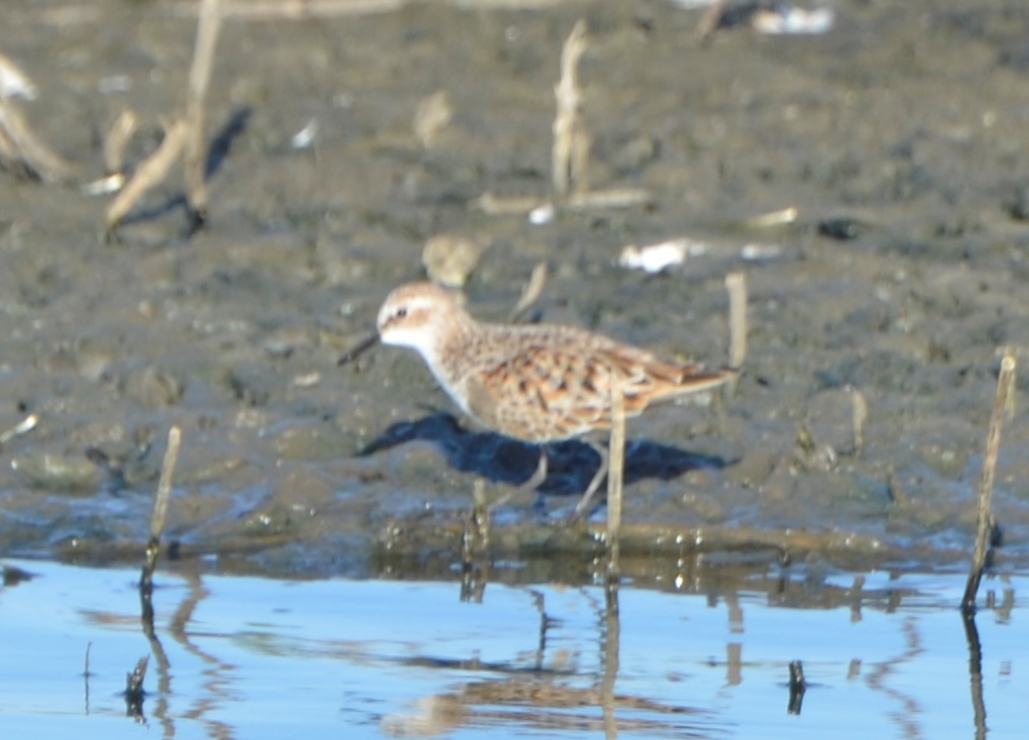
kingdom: Animalia
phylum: Chordata
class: Aves
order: Charadriiformes
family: Scolopacidae
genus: Calidris
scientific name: Calidris minuta
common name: Little stint
